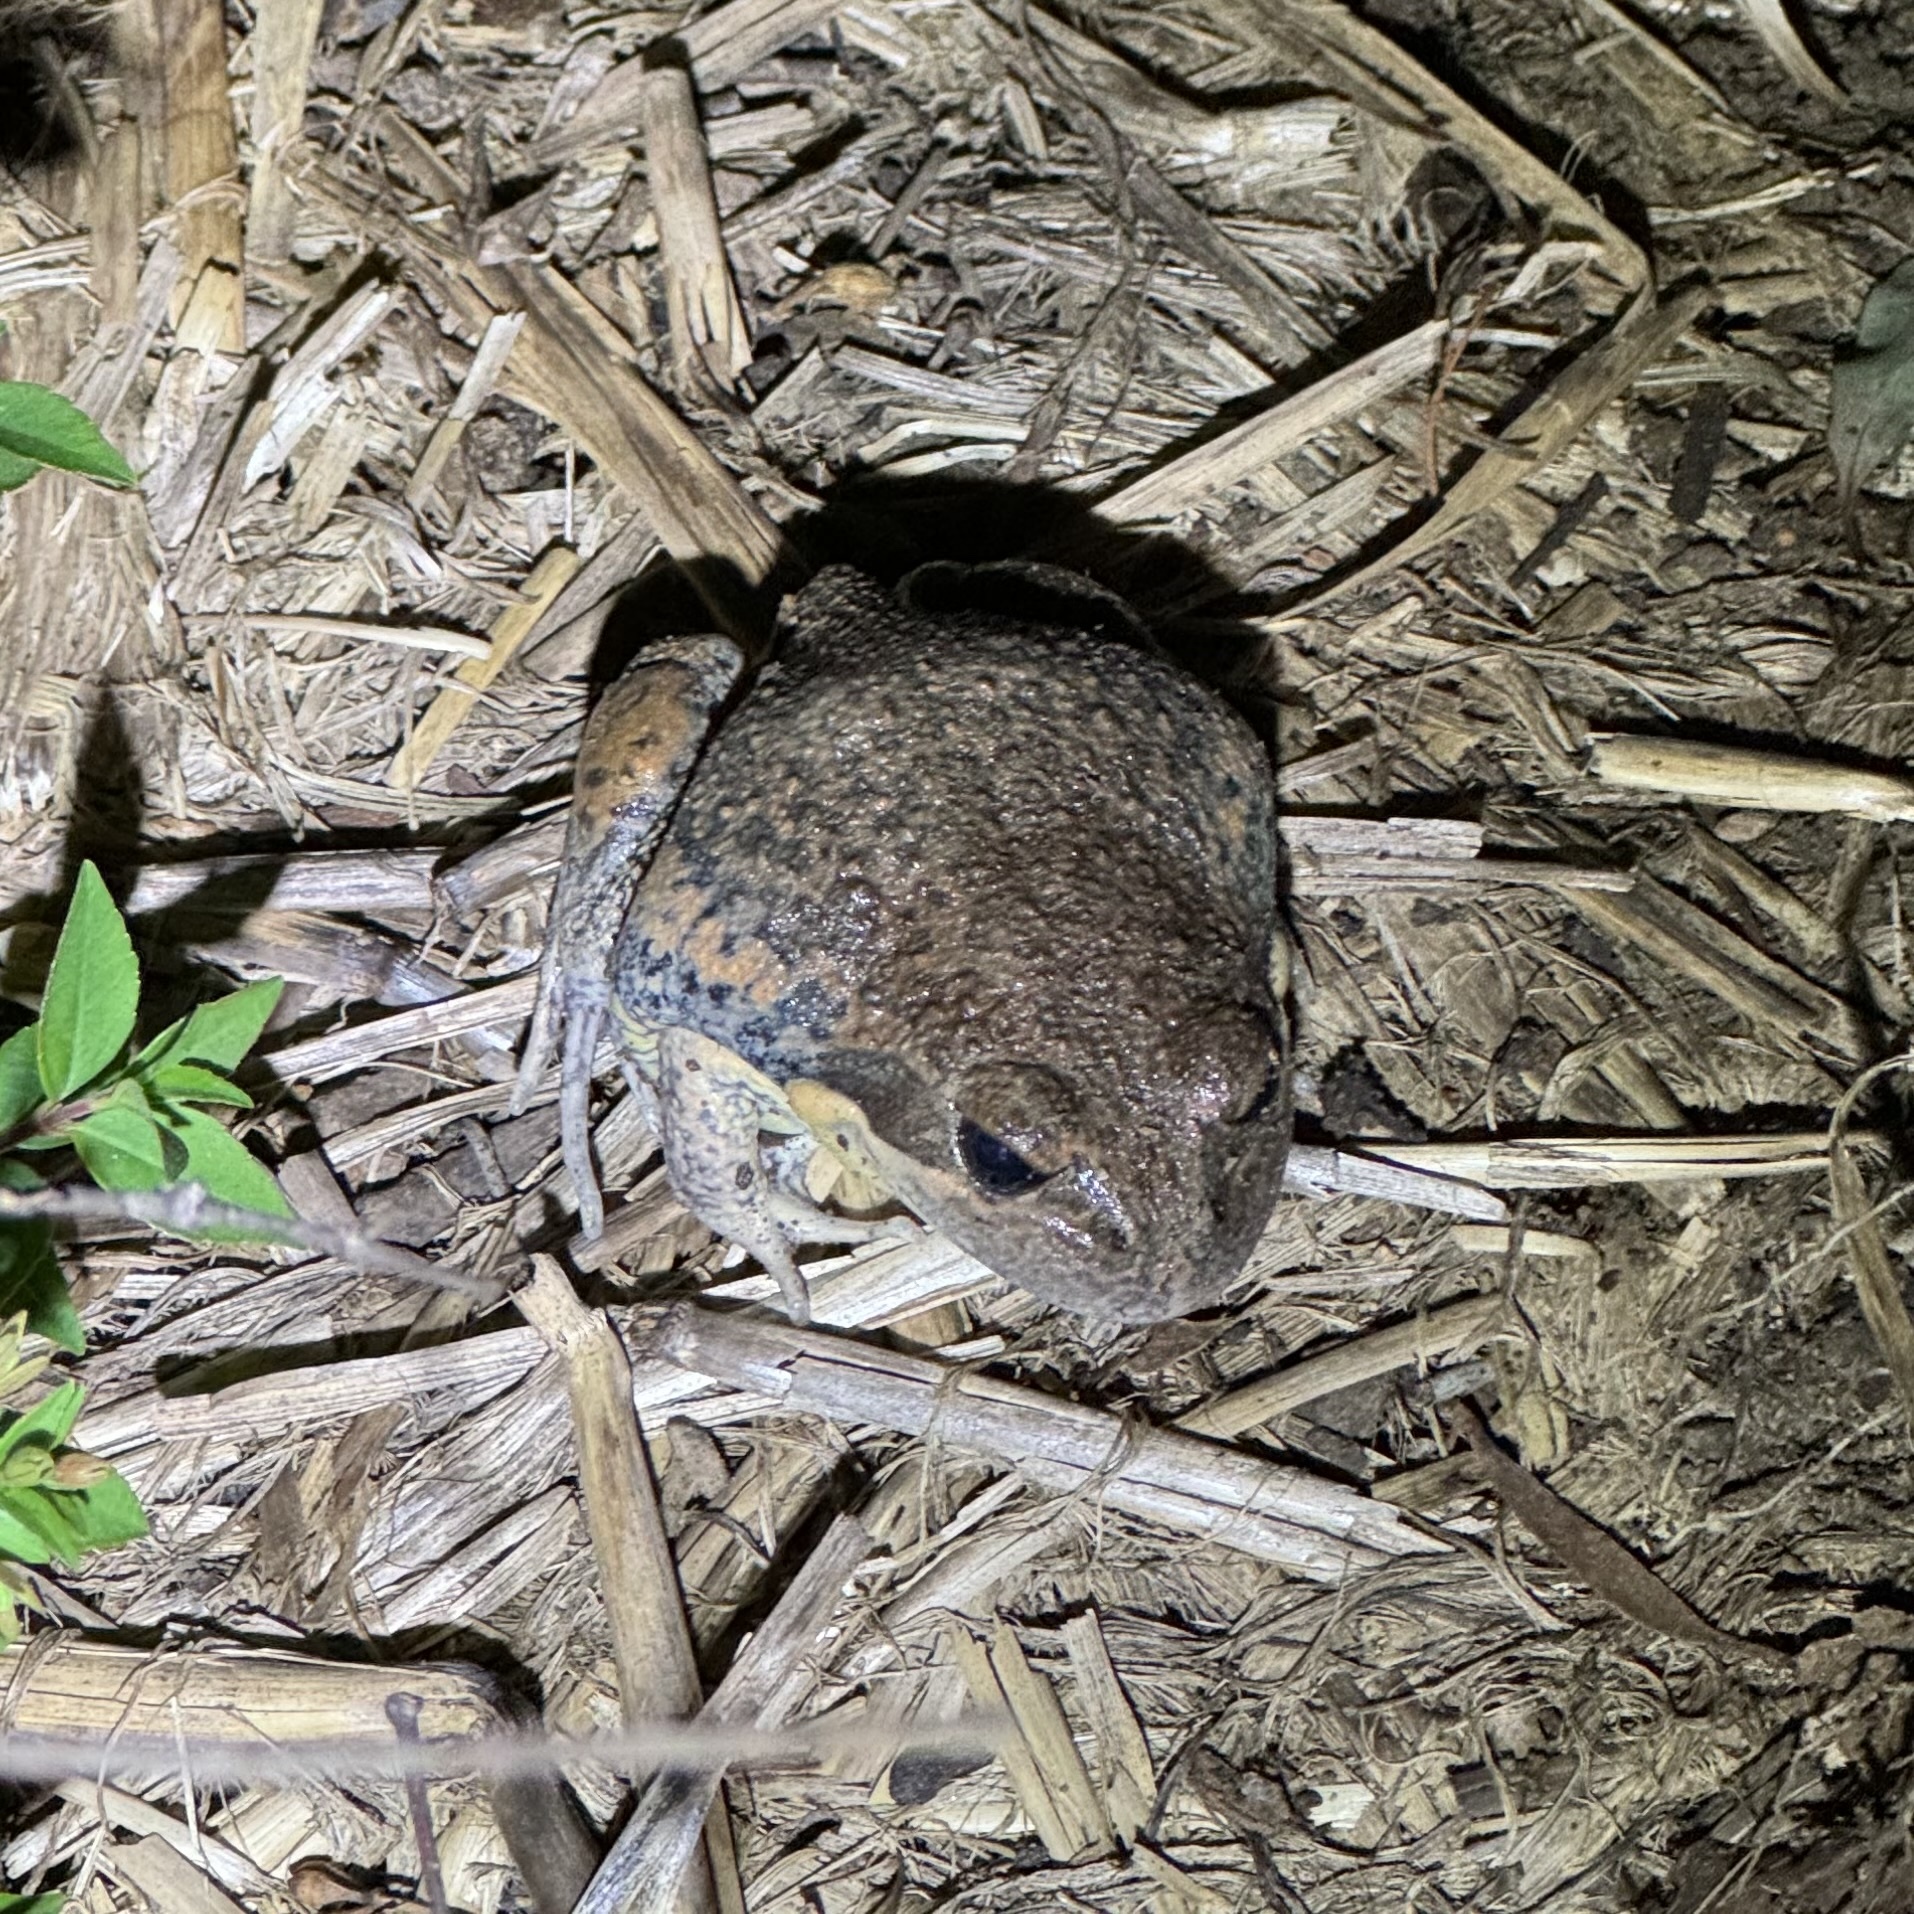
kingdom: Animalia
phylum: Chordata
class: Amphibia
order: Anura
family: Limnodynastidae
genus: Limnodynastes
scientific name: Limnodynastes dumerilii
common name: Banjo frog
